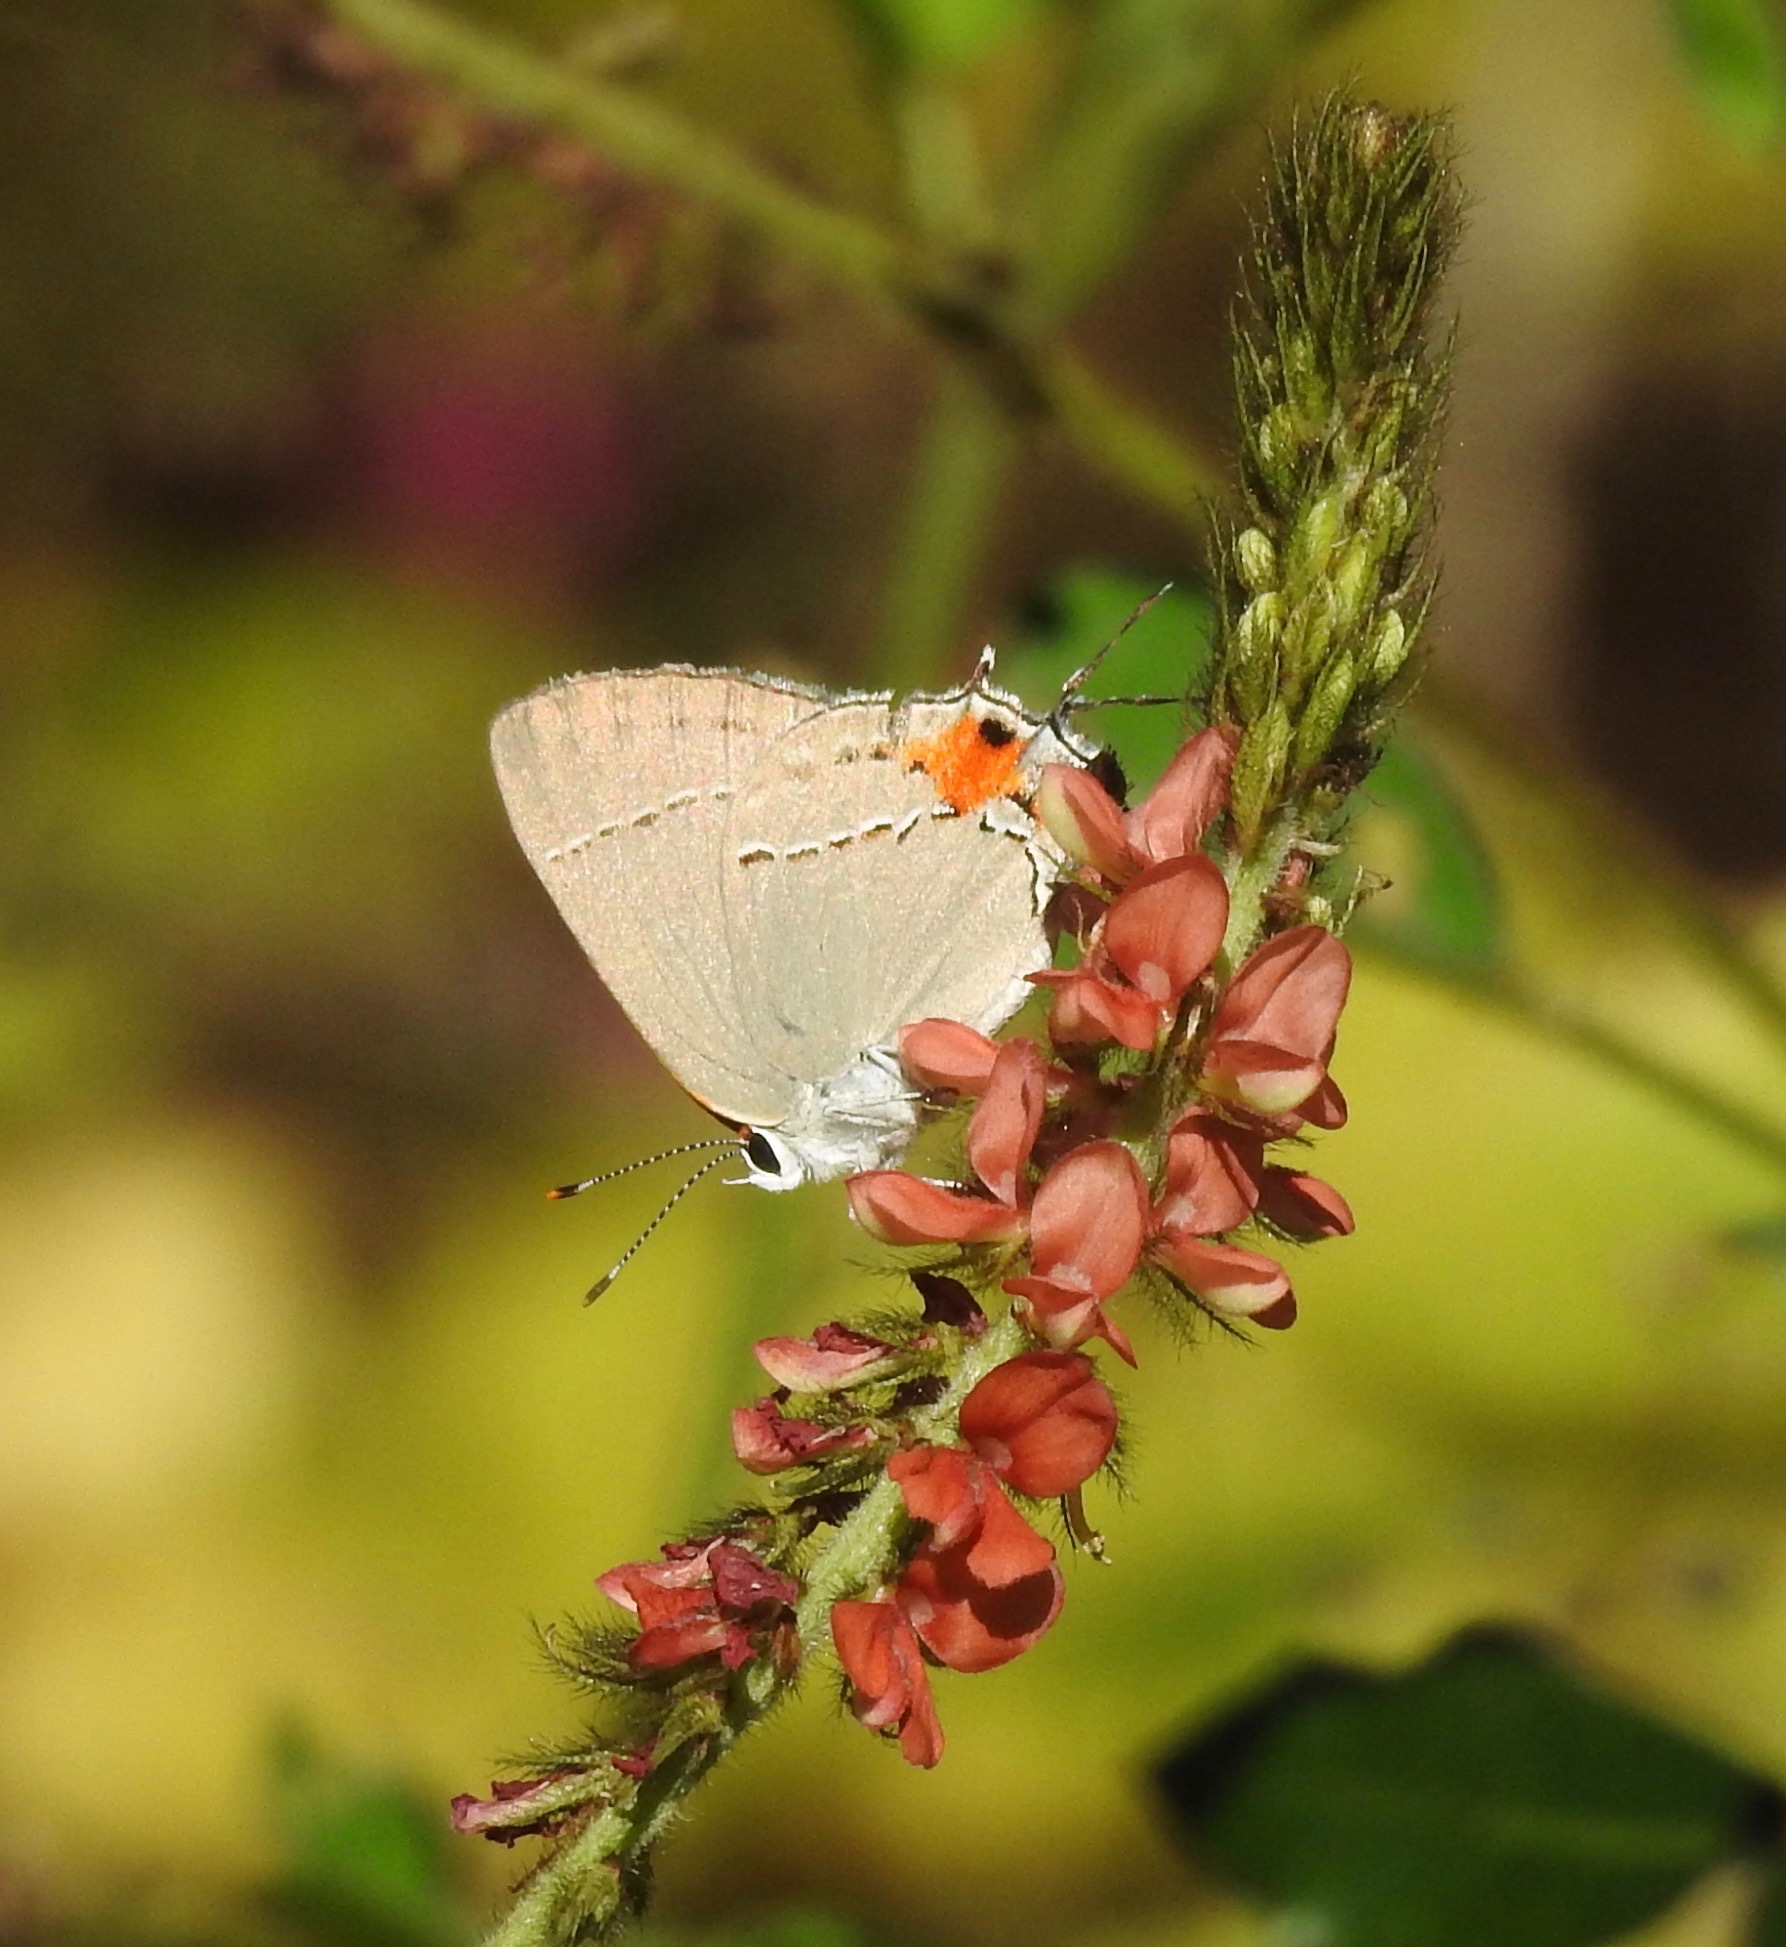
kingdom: Animalia
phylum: Arthropoda
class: Insecta
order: Lepidoptera
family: Lycaenidae
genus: Strymon
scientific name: Strymon melinus
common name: Gray hairstreak
